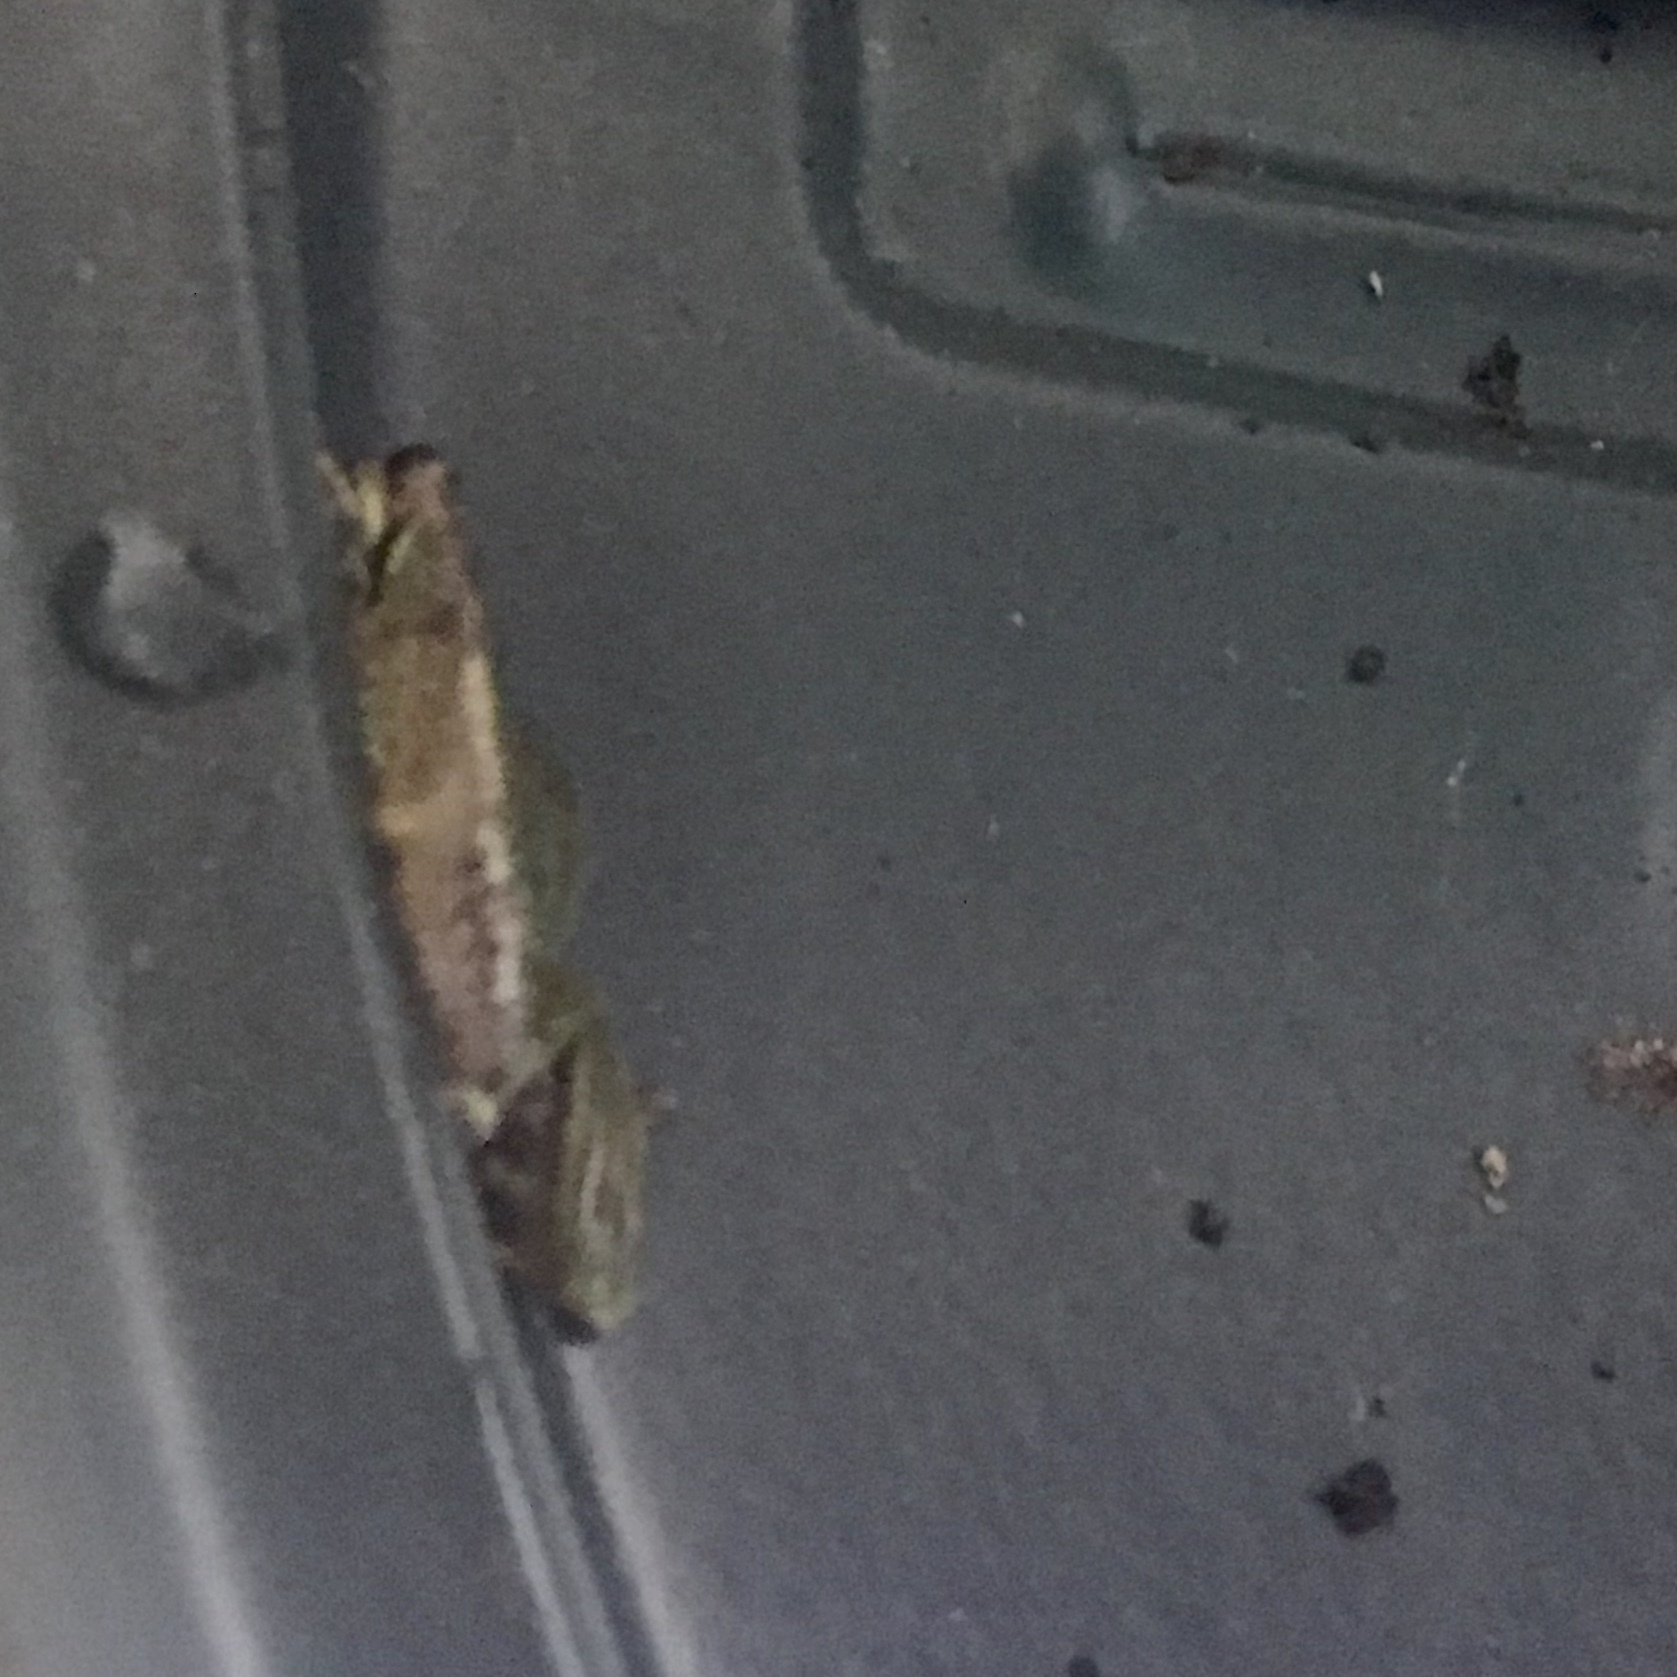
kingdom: Animalia
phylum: Chordata
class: Amphibia
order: Anura
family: Hylidae
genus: Pseudacris
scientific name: Pseudacris regilla
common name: Pacific chorus frog
